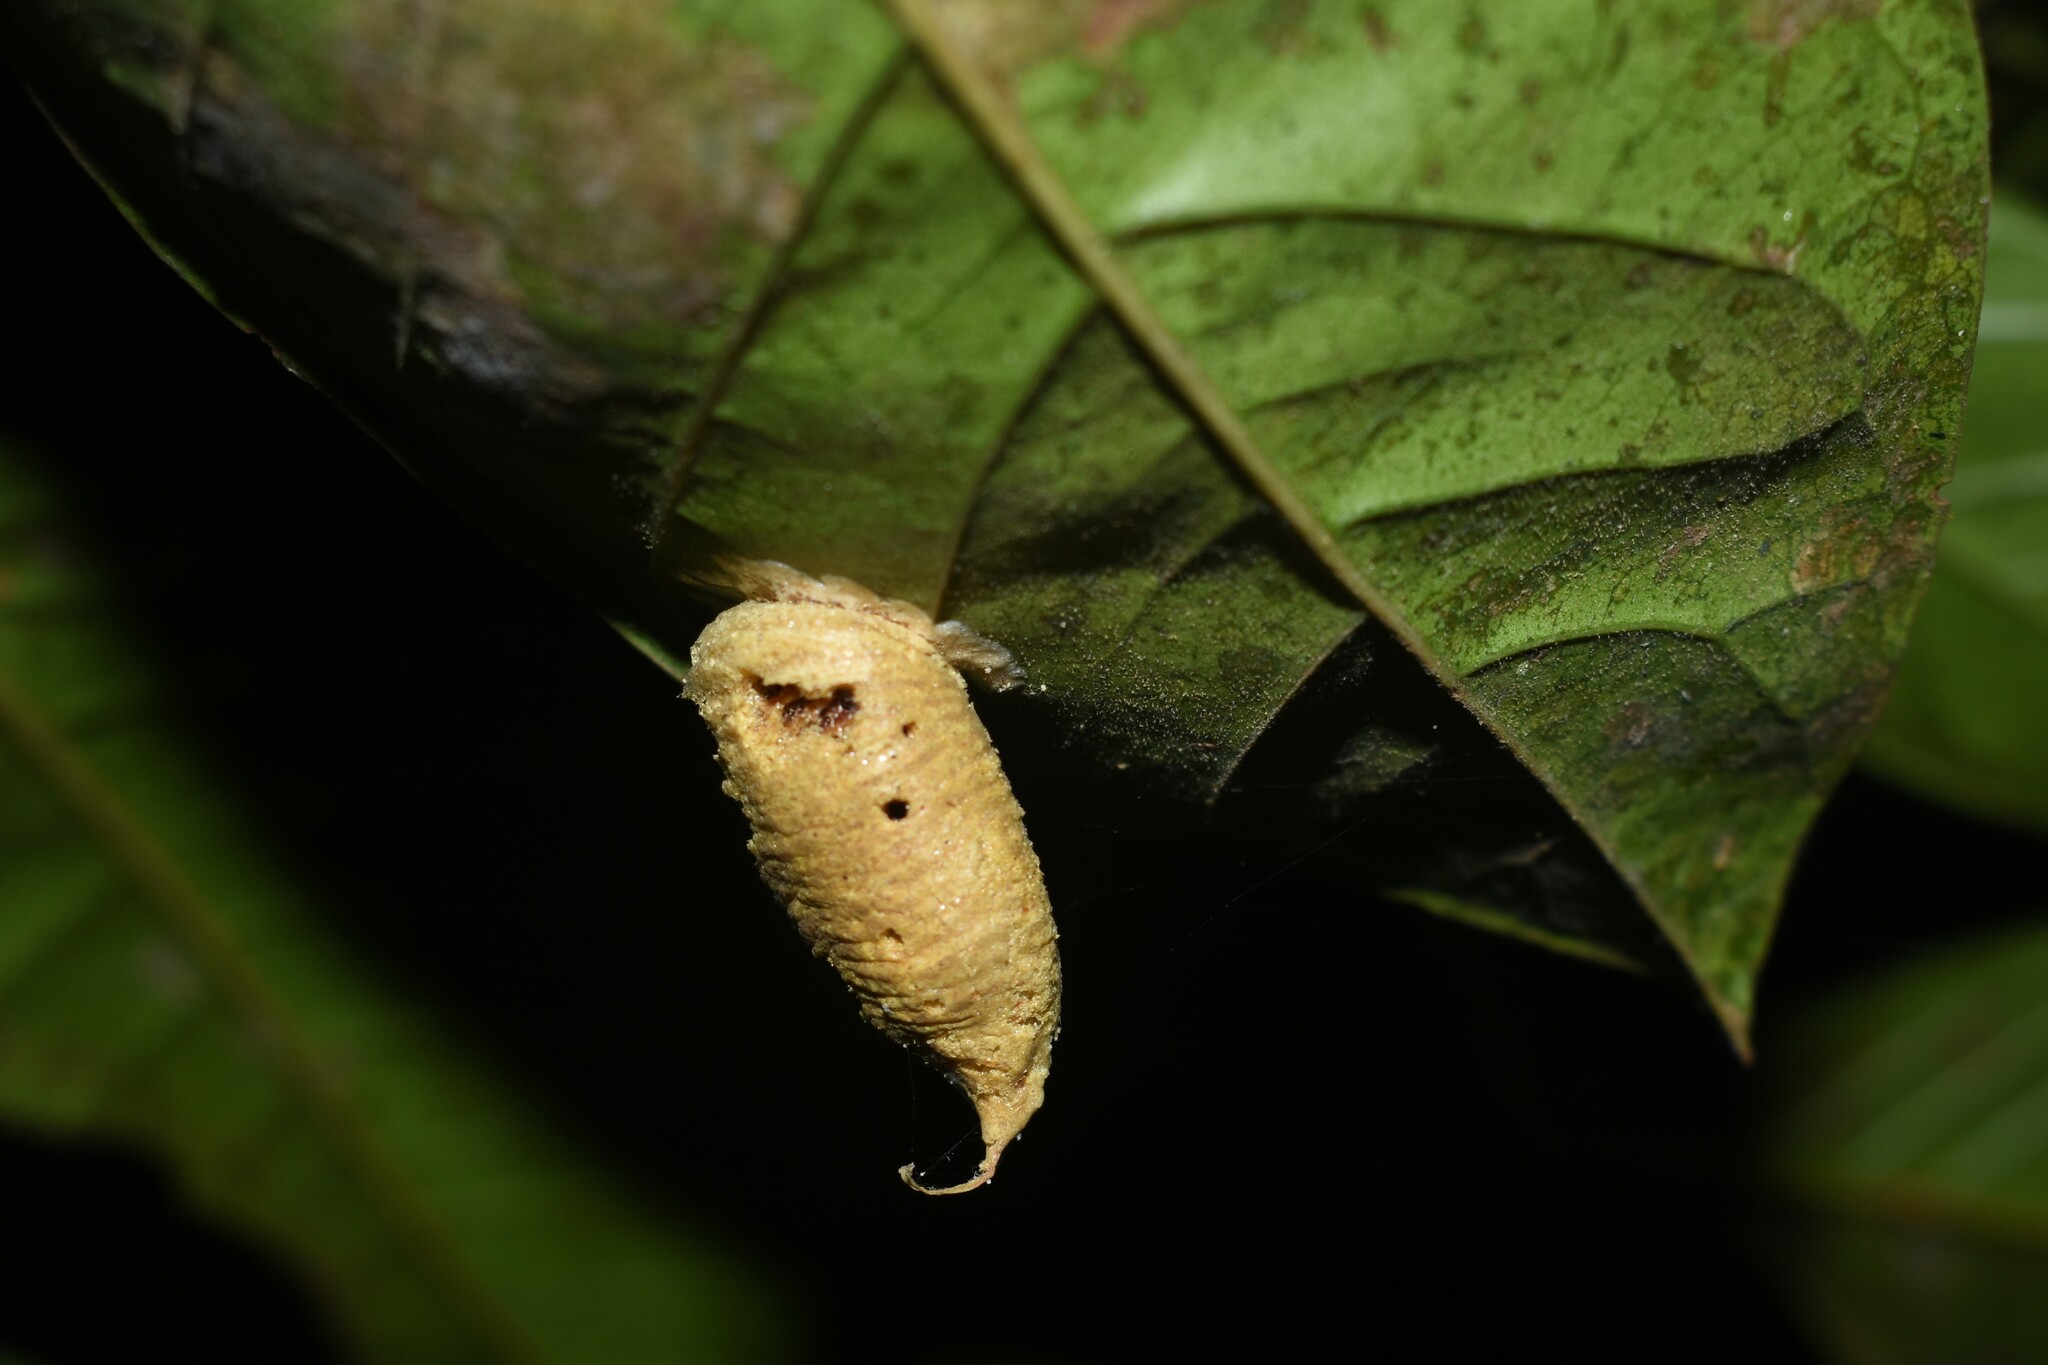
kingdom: Animalia
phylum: Arthropoda
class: Insecta
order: Mantodea
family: Acanthopidae
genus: Callibia
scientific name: Callibia diana
